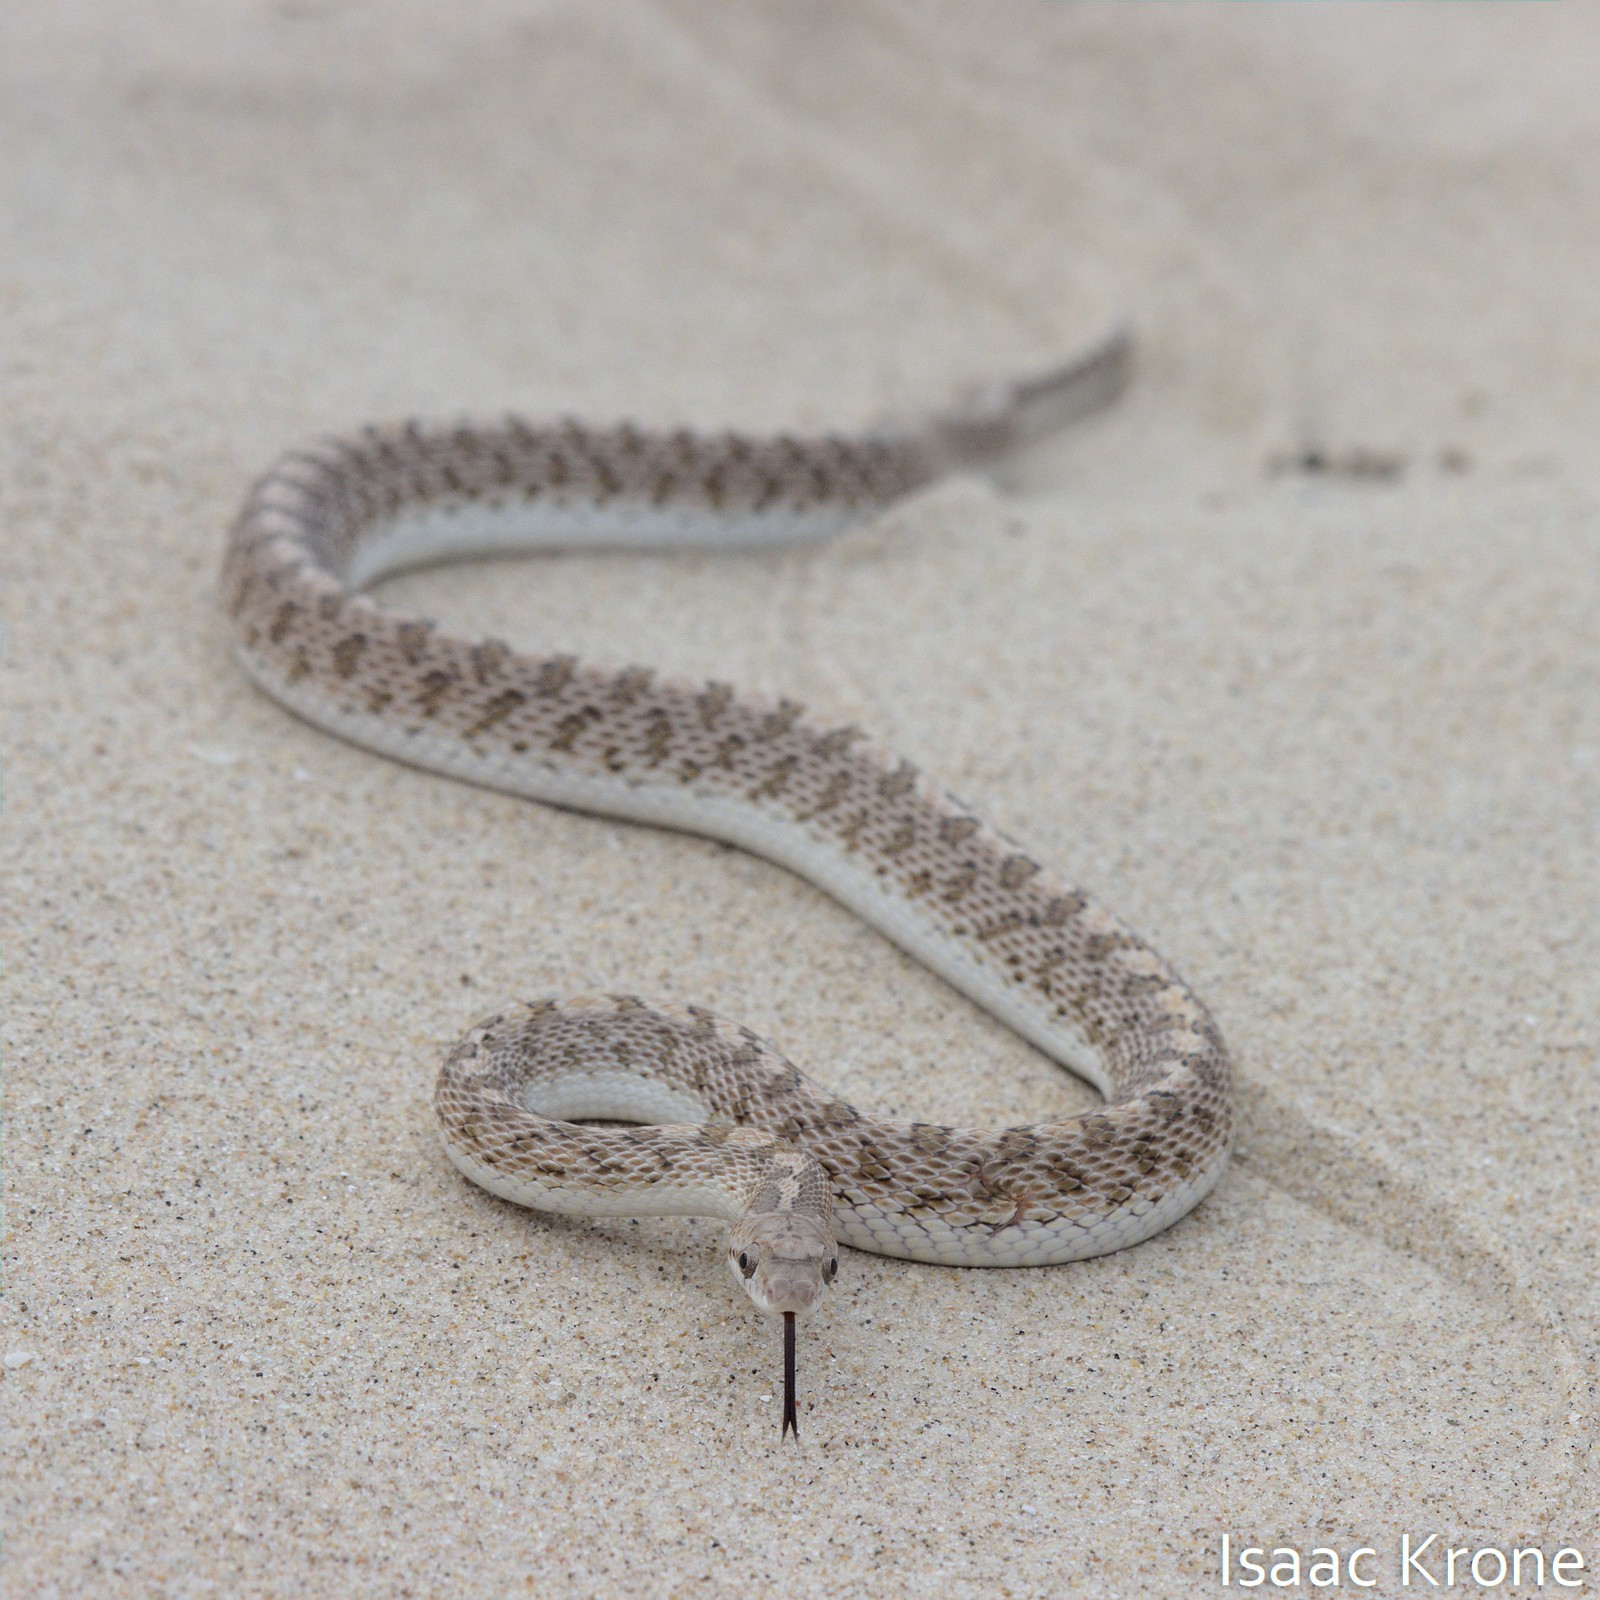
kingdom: Animalia
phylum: Chordata
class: Squamata
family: Colubridae
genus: Arizona
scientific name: Arizona elegans
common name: Glossy snake
